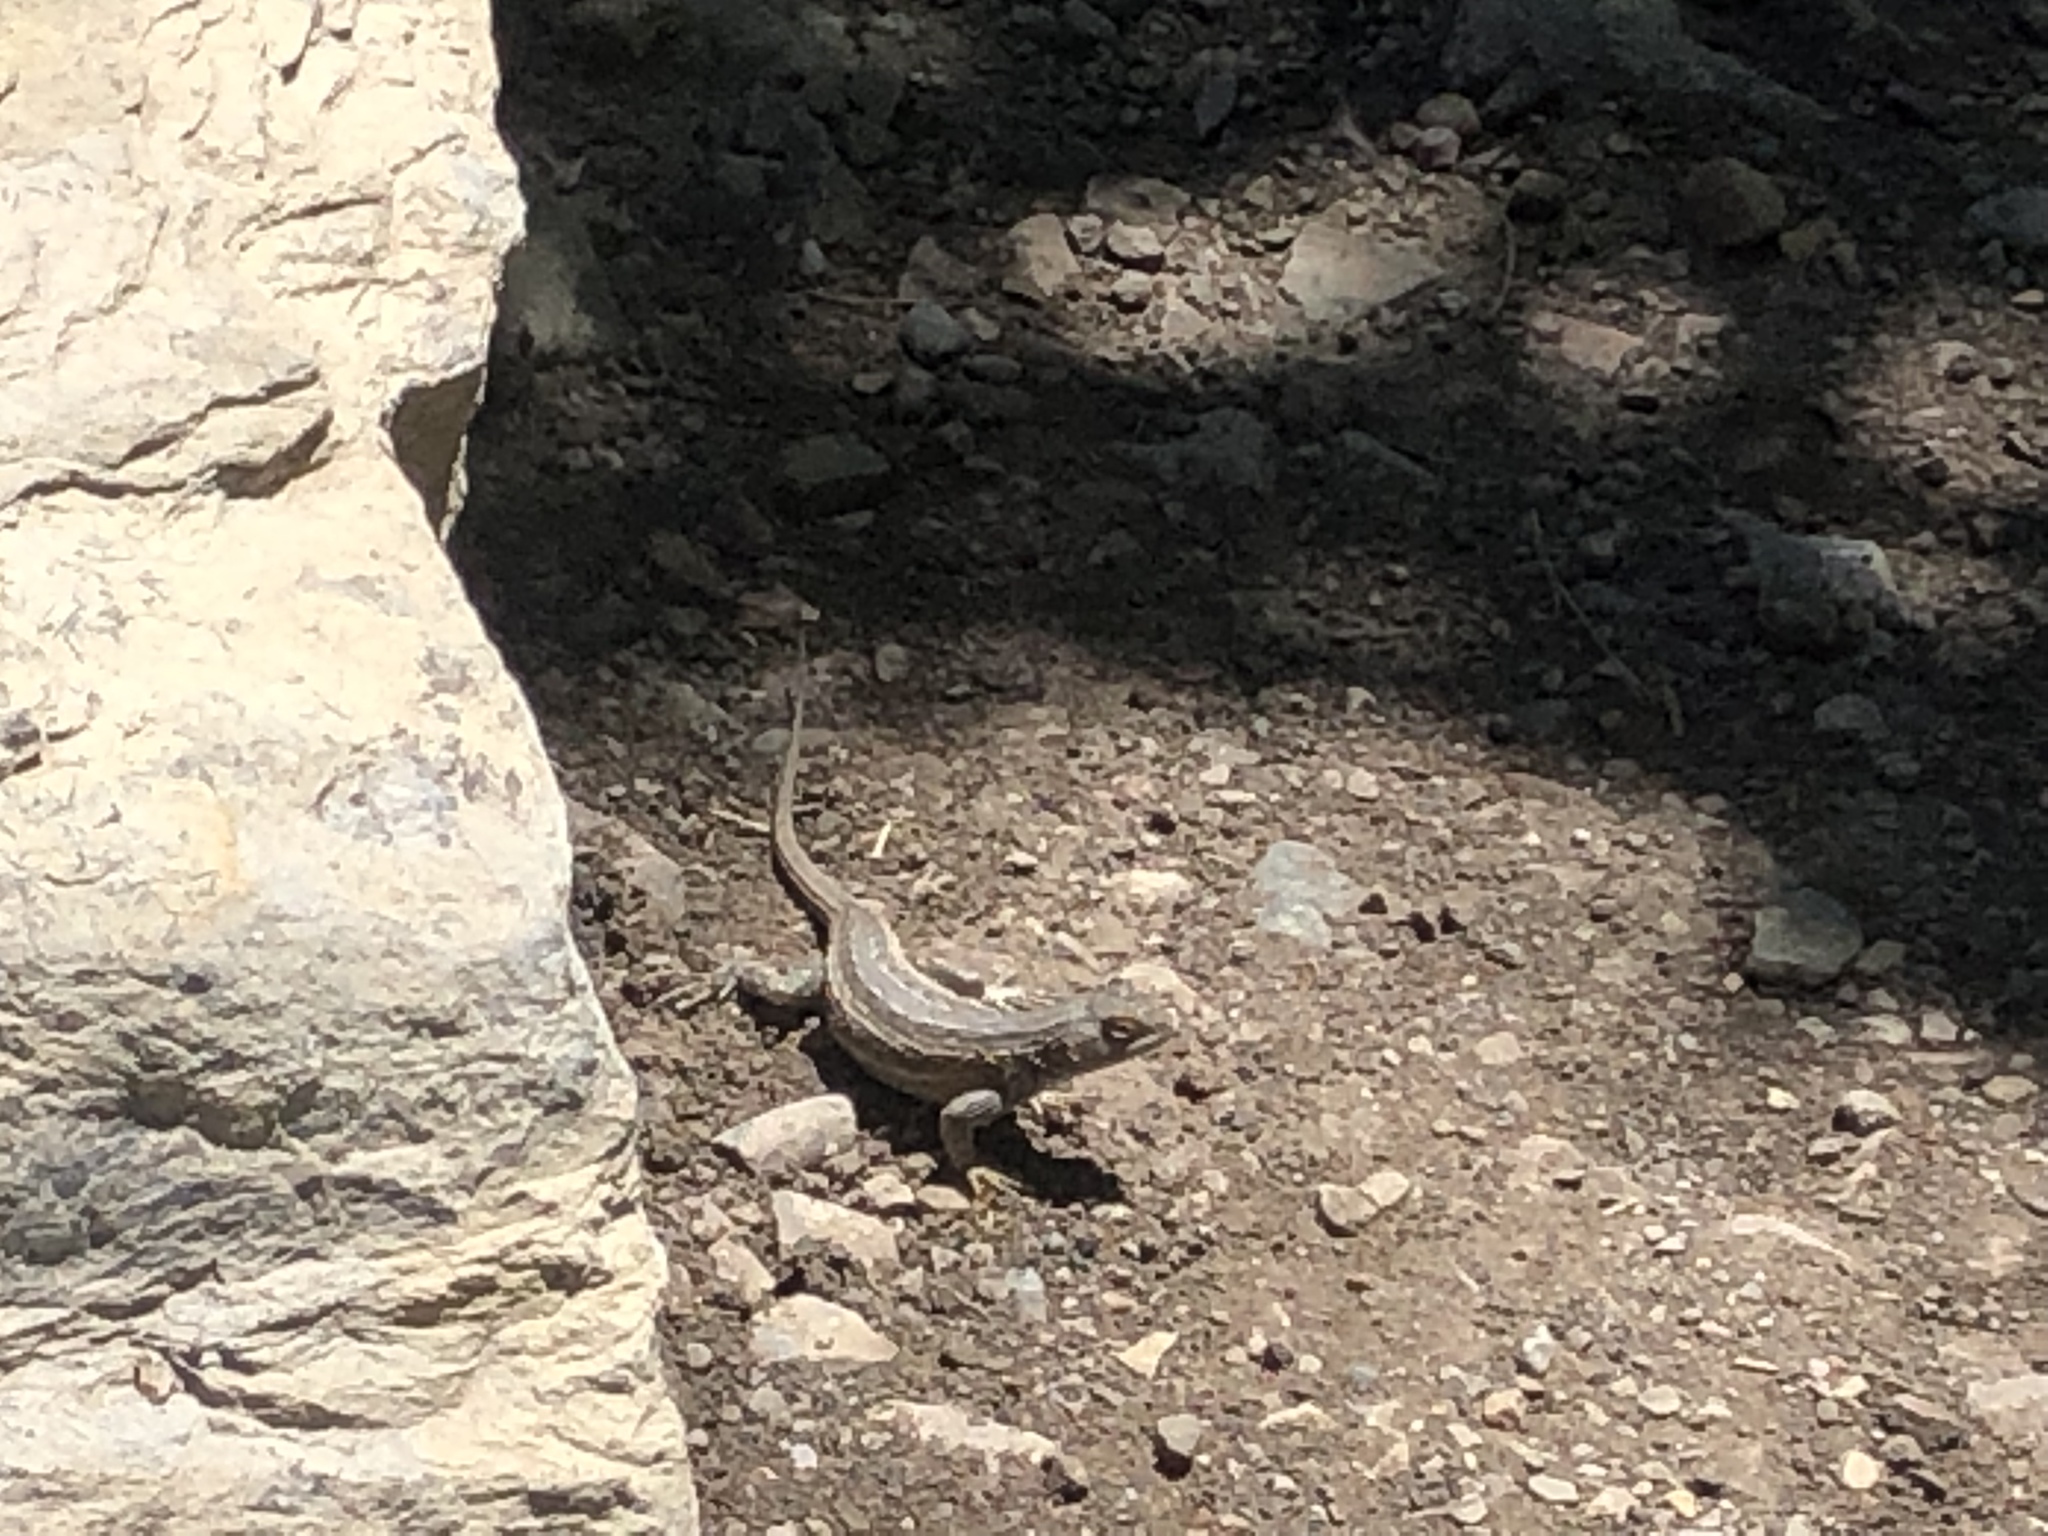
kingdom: Animalia
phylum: Chordata
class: Squamata
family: Phrynosomatidae
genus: Sceloporus
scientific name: Sceloporus cowlesi
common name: White sands prairie lizard
